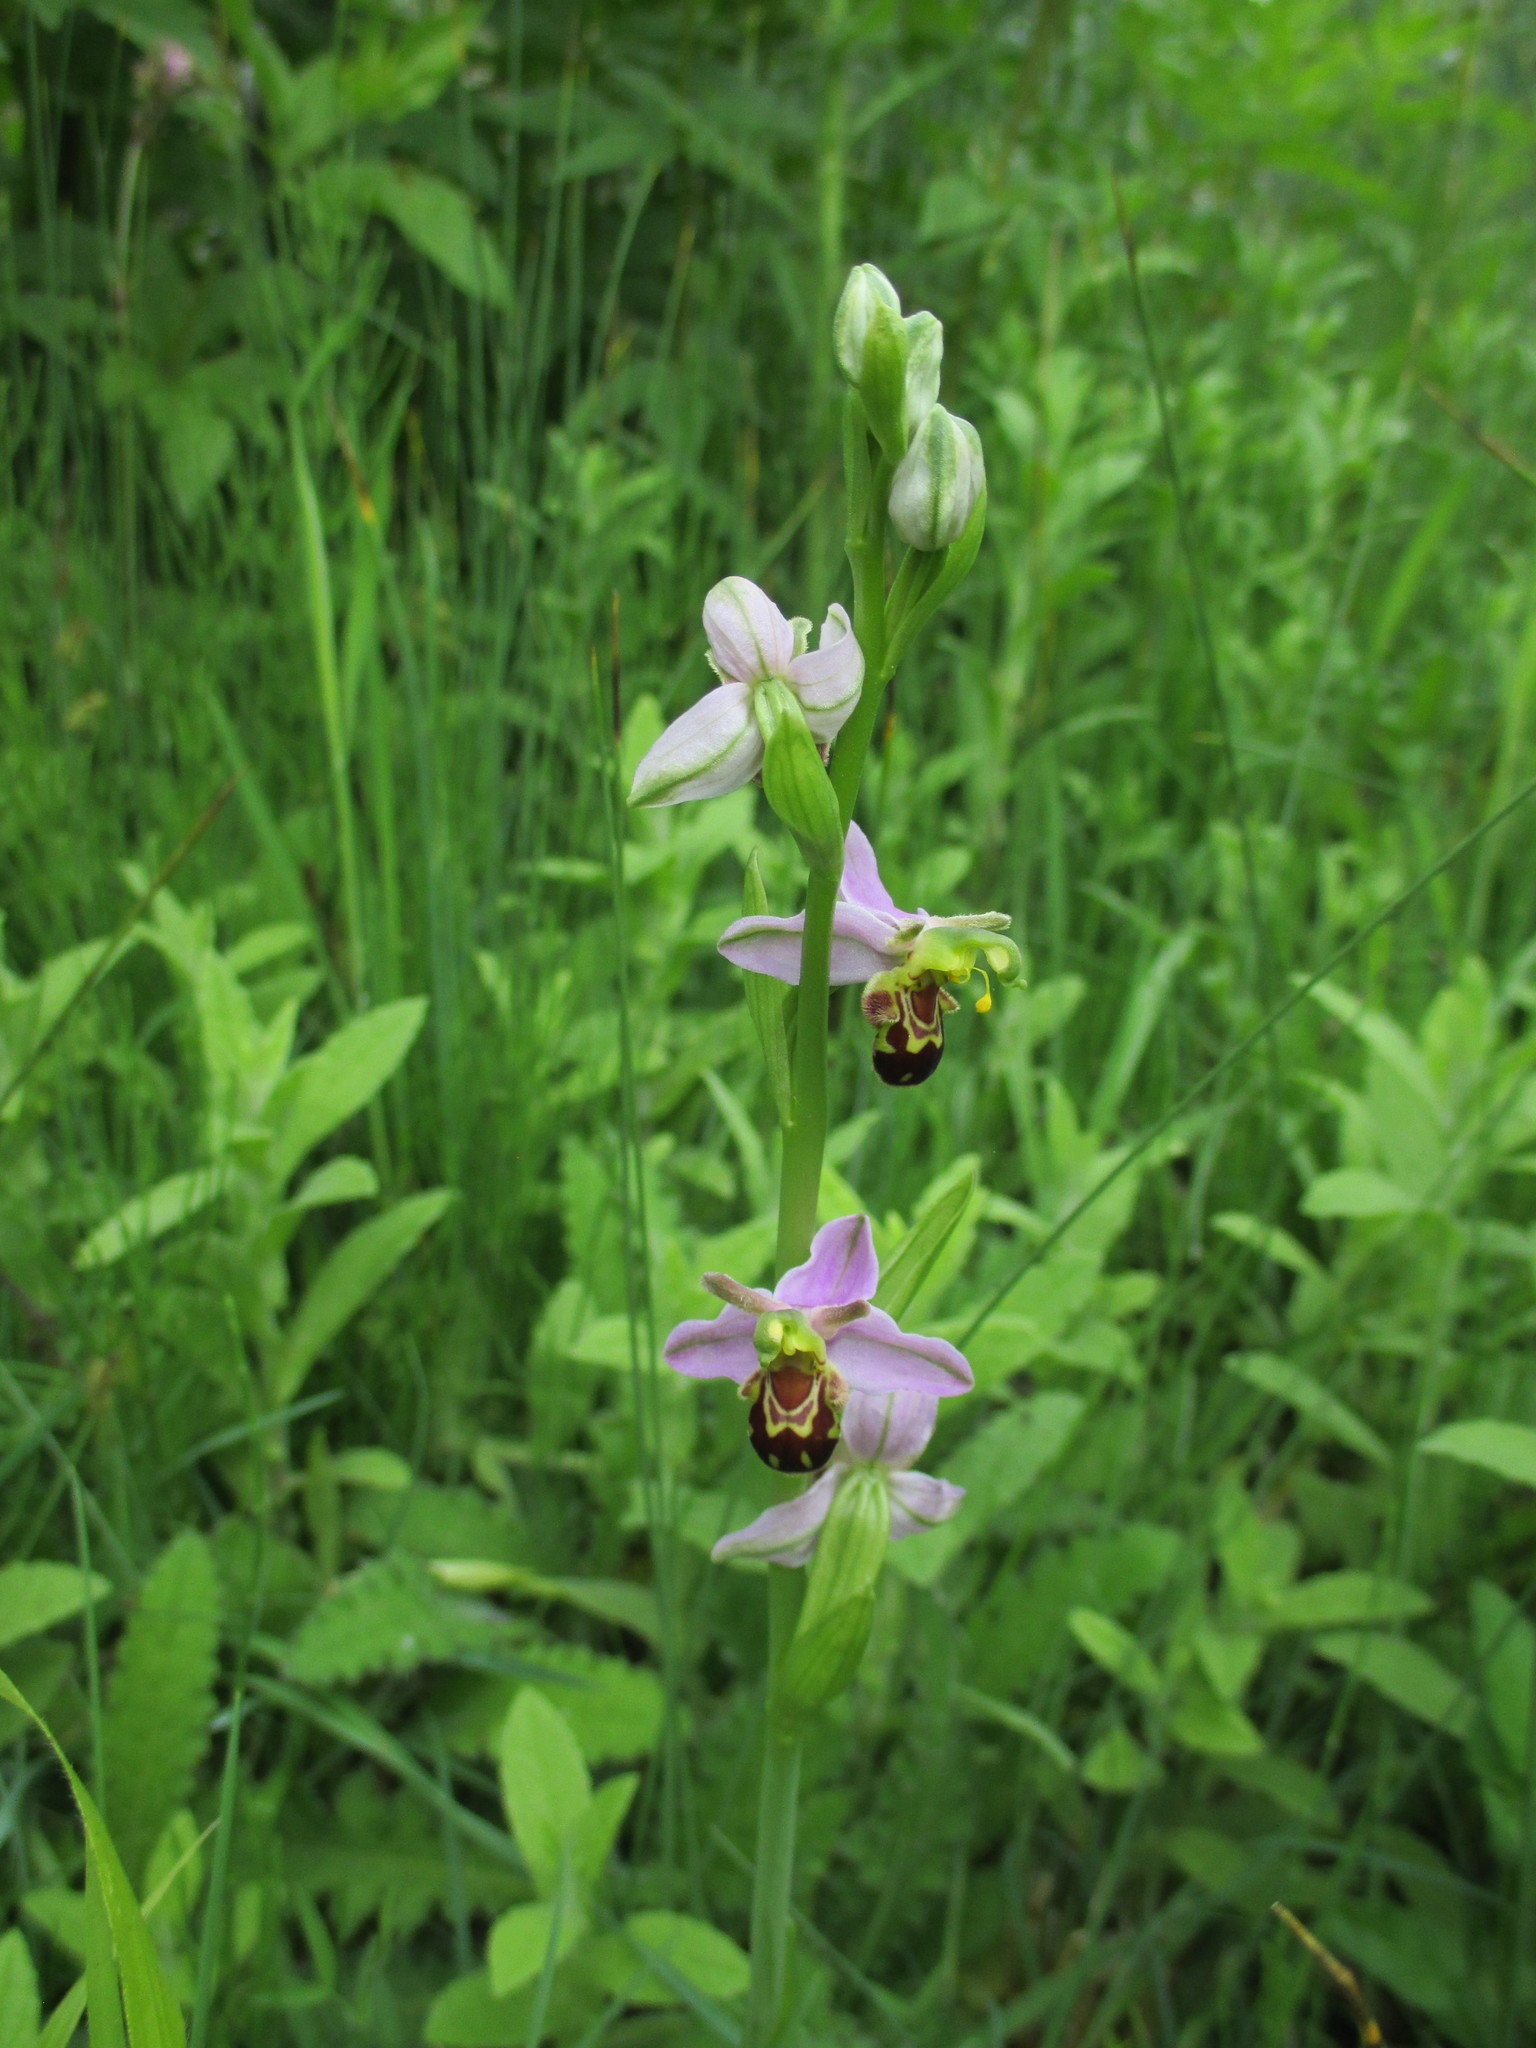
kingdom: Plantae
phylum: Tracheophyta
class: Liliopsida
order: Asparagales
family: Orchidaceae
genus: Ophrys
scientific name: Ophrys apifera
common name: Bee orchid
